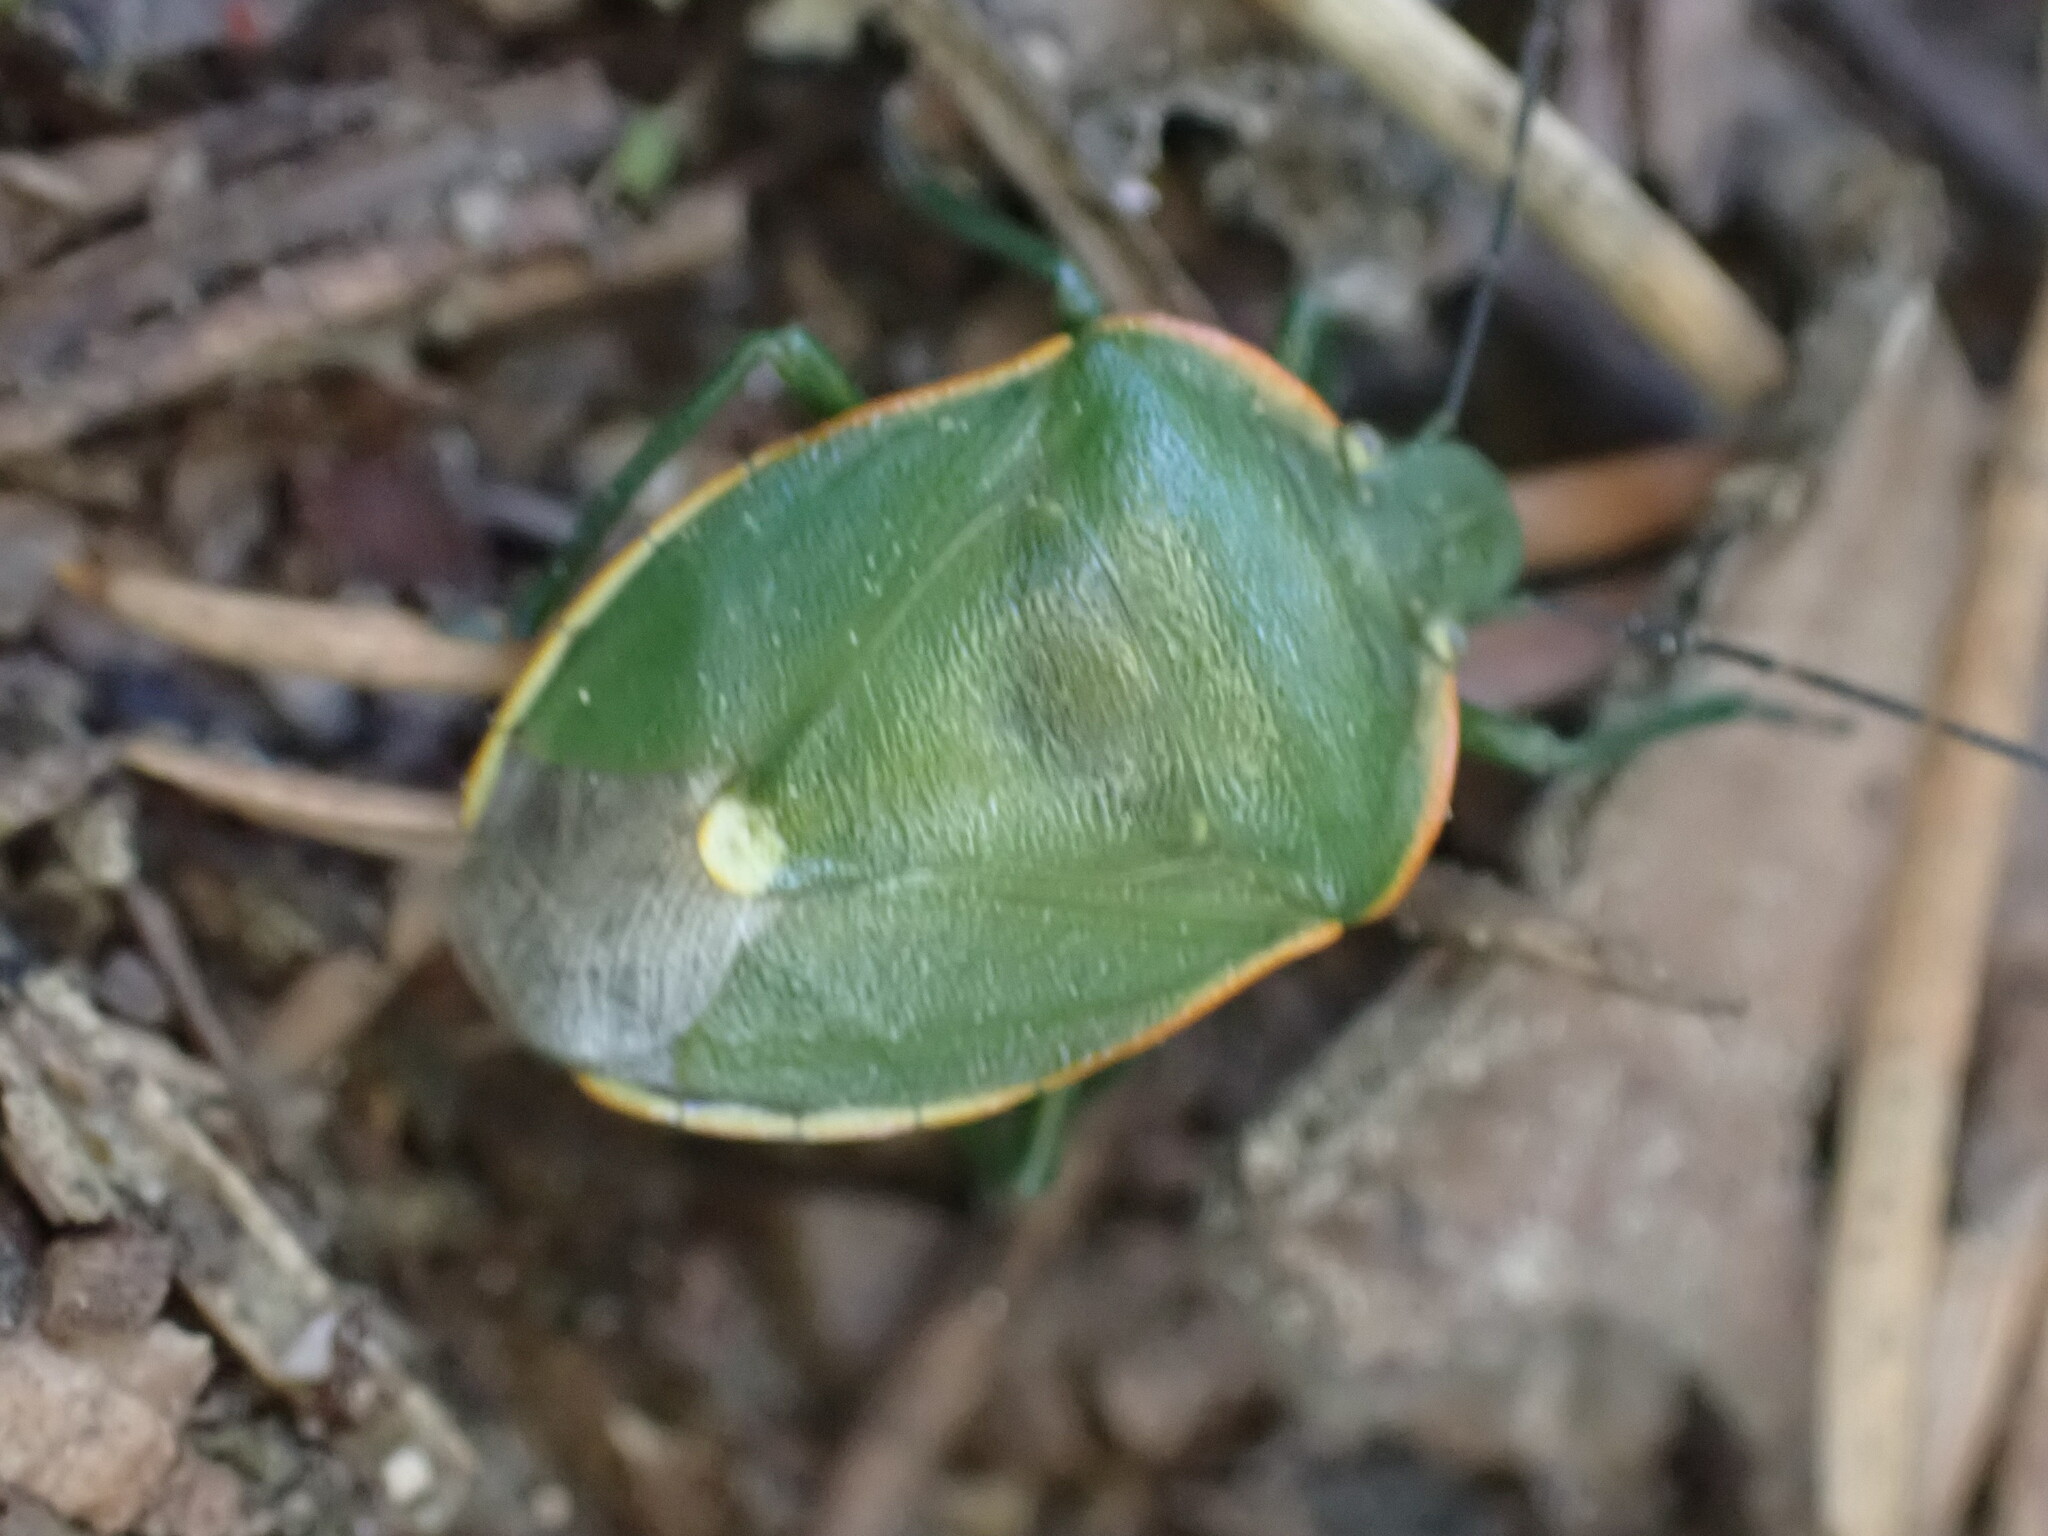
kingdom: Animalia
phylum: Arthropoda
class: Insecta
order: Hemiptera
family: Pentatomidae
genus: Chlorochroa
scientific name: Chlorochroa reuteriana
